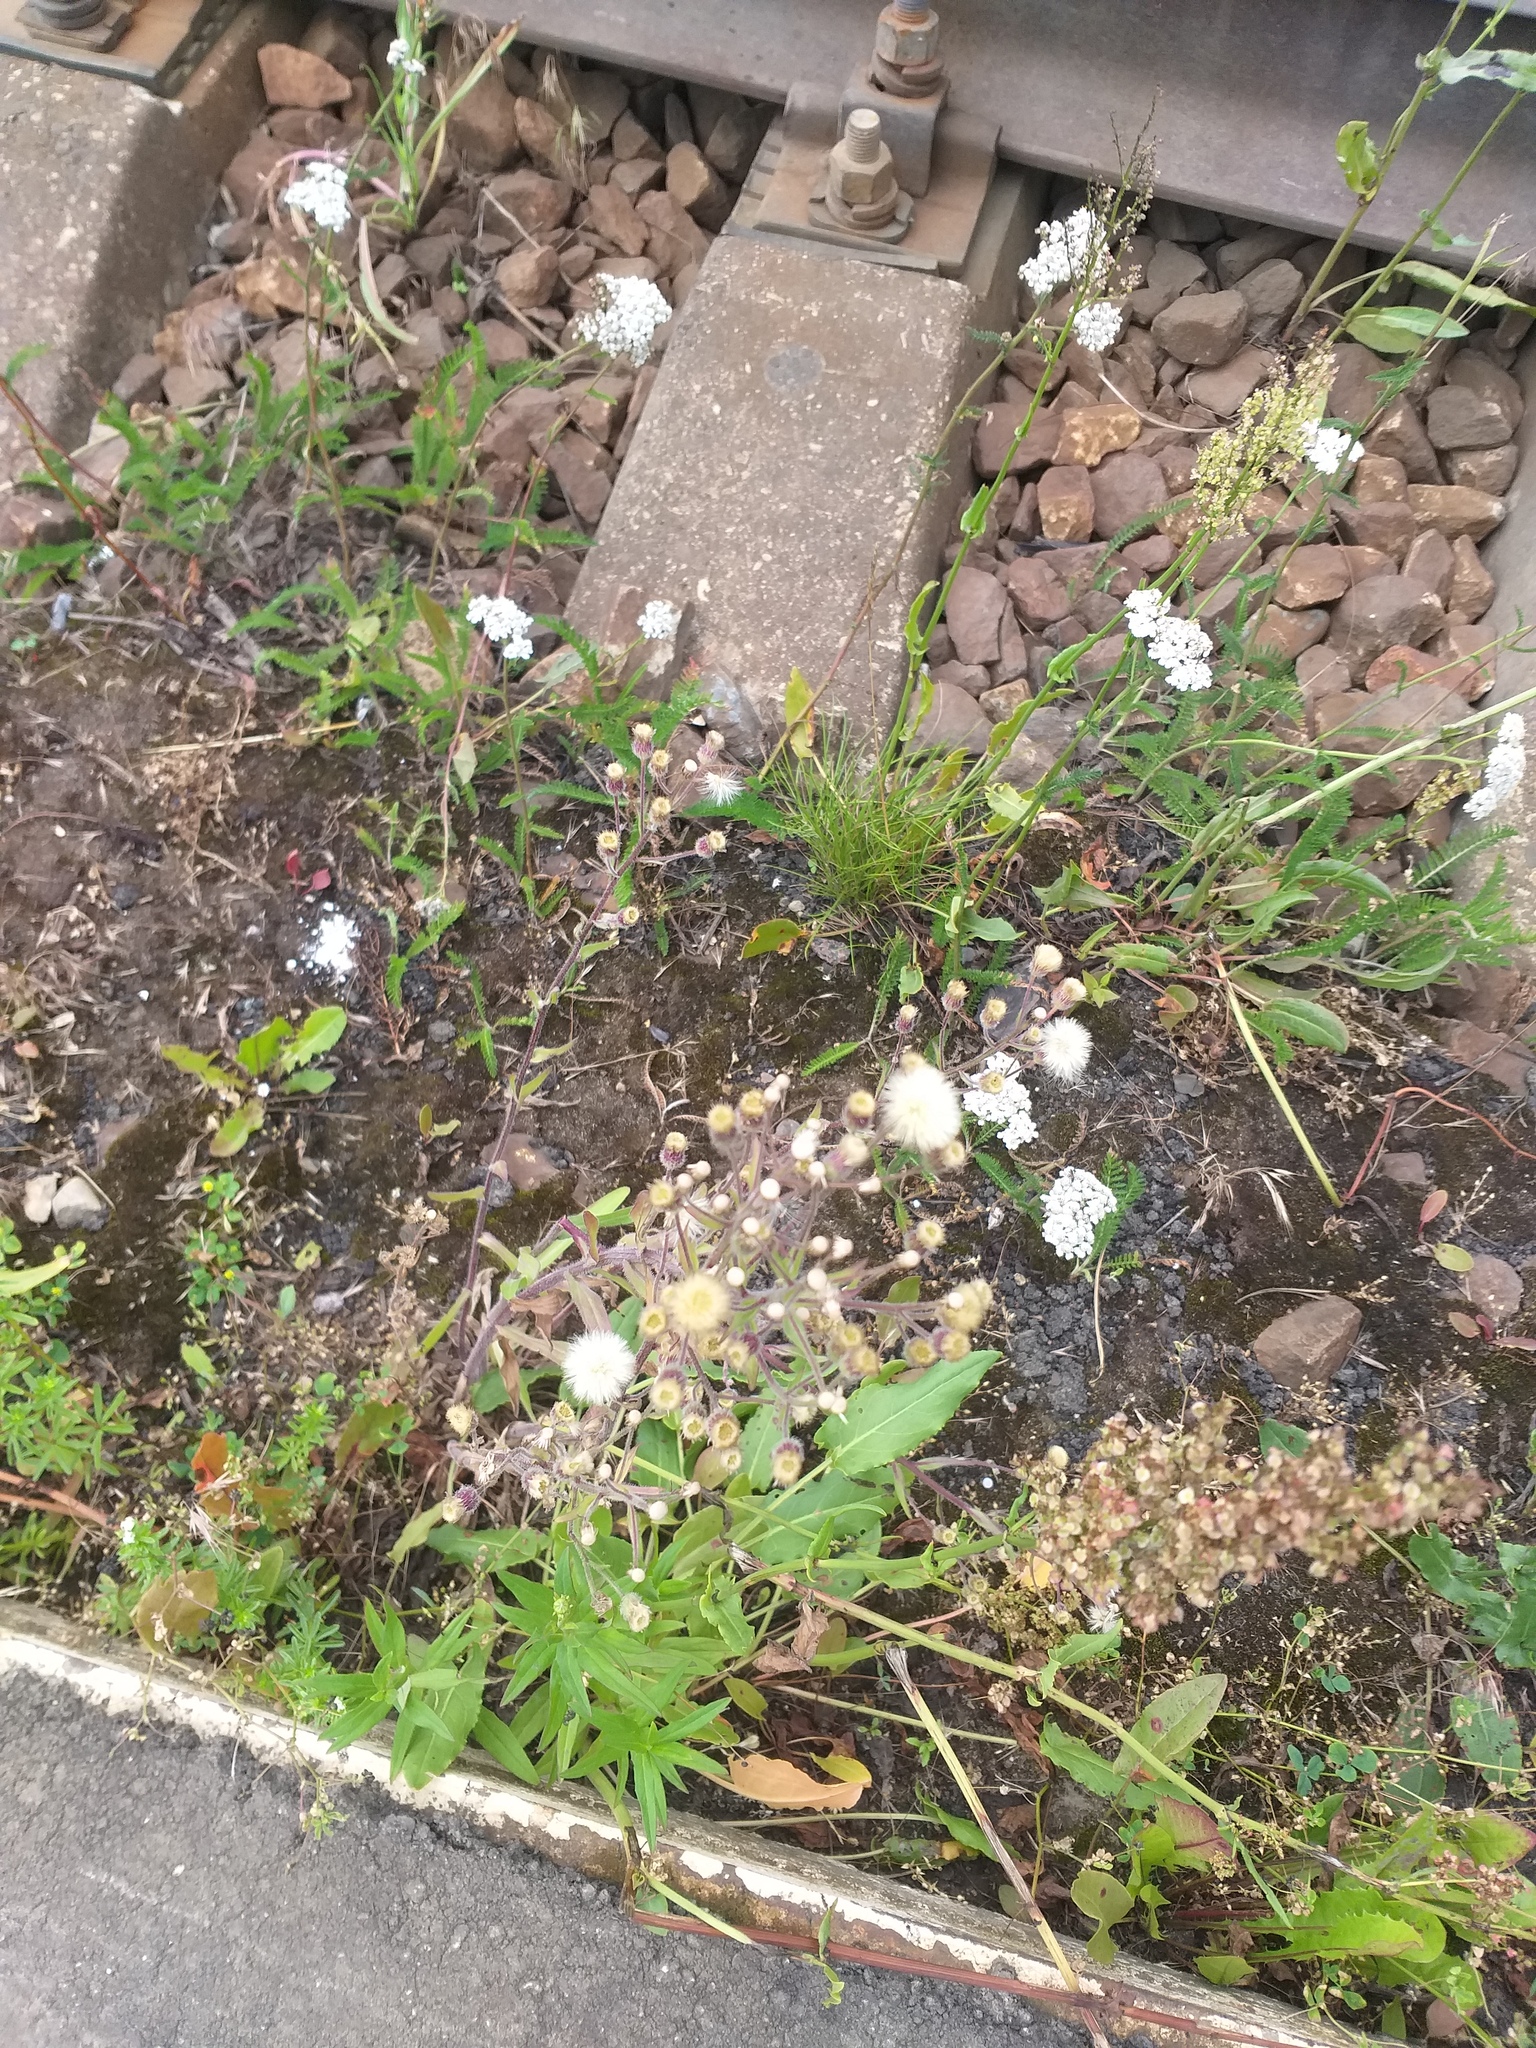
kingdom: Plantae
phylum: Tracheophyta
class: Magnoliopsida
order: Asterales
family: Asteraceae
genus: Erigeron
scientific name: Erigeron acris
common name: Blue fleabane
